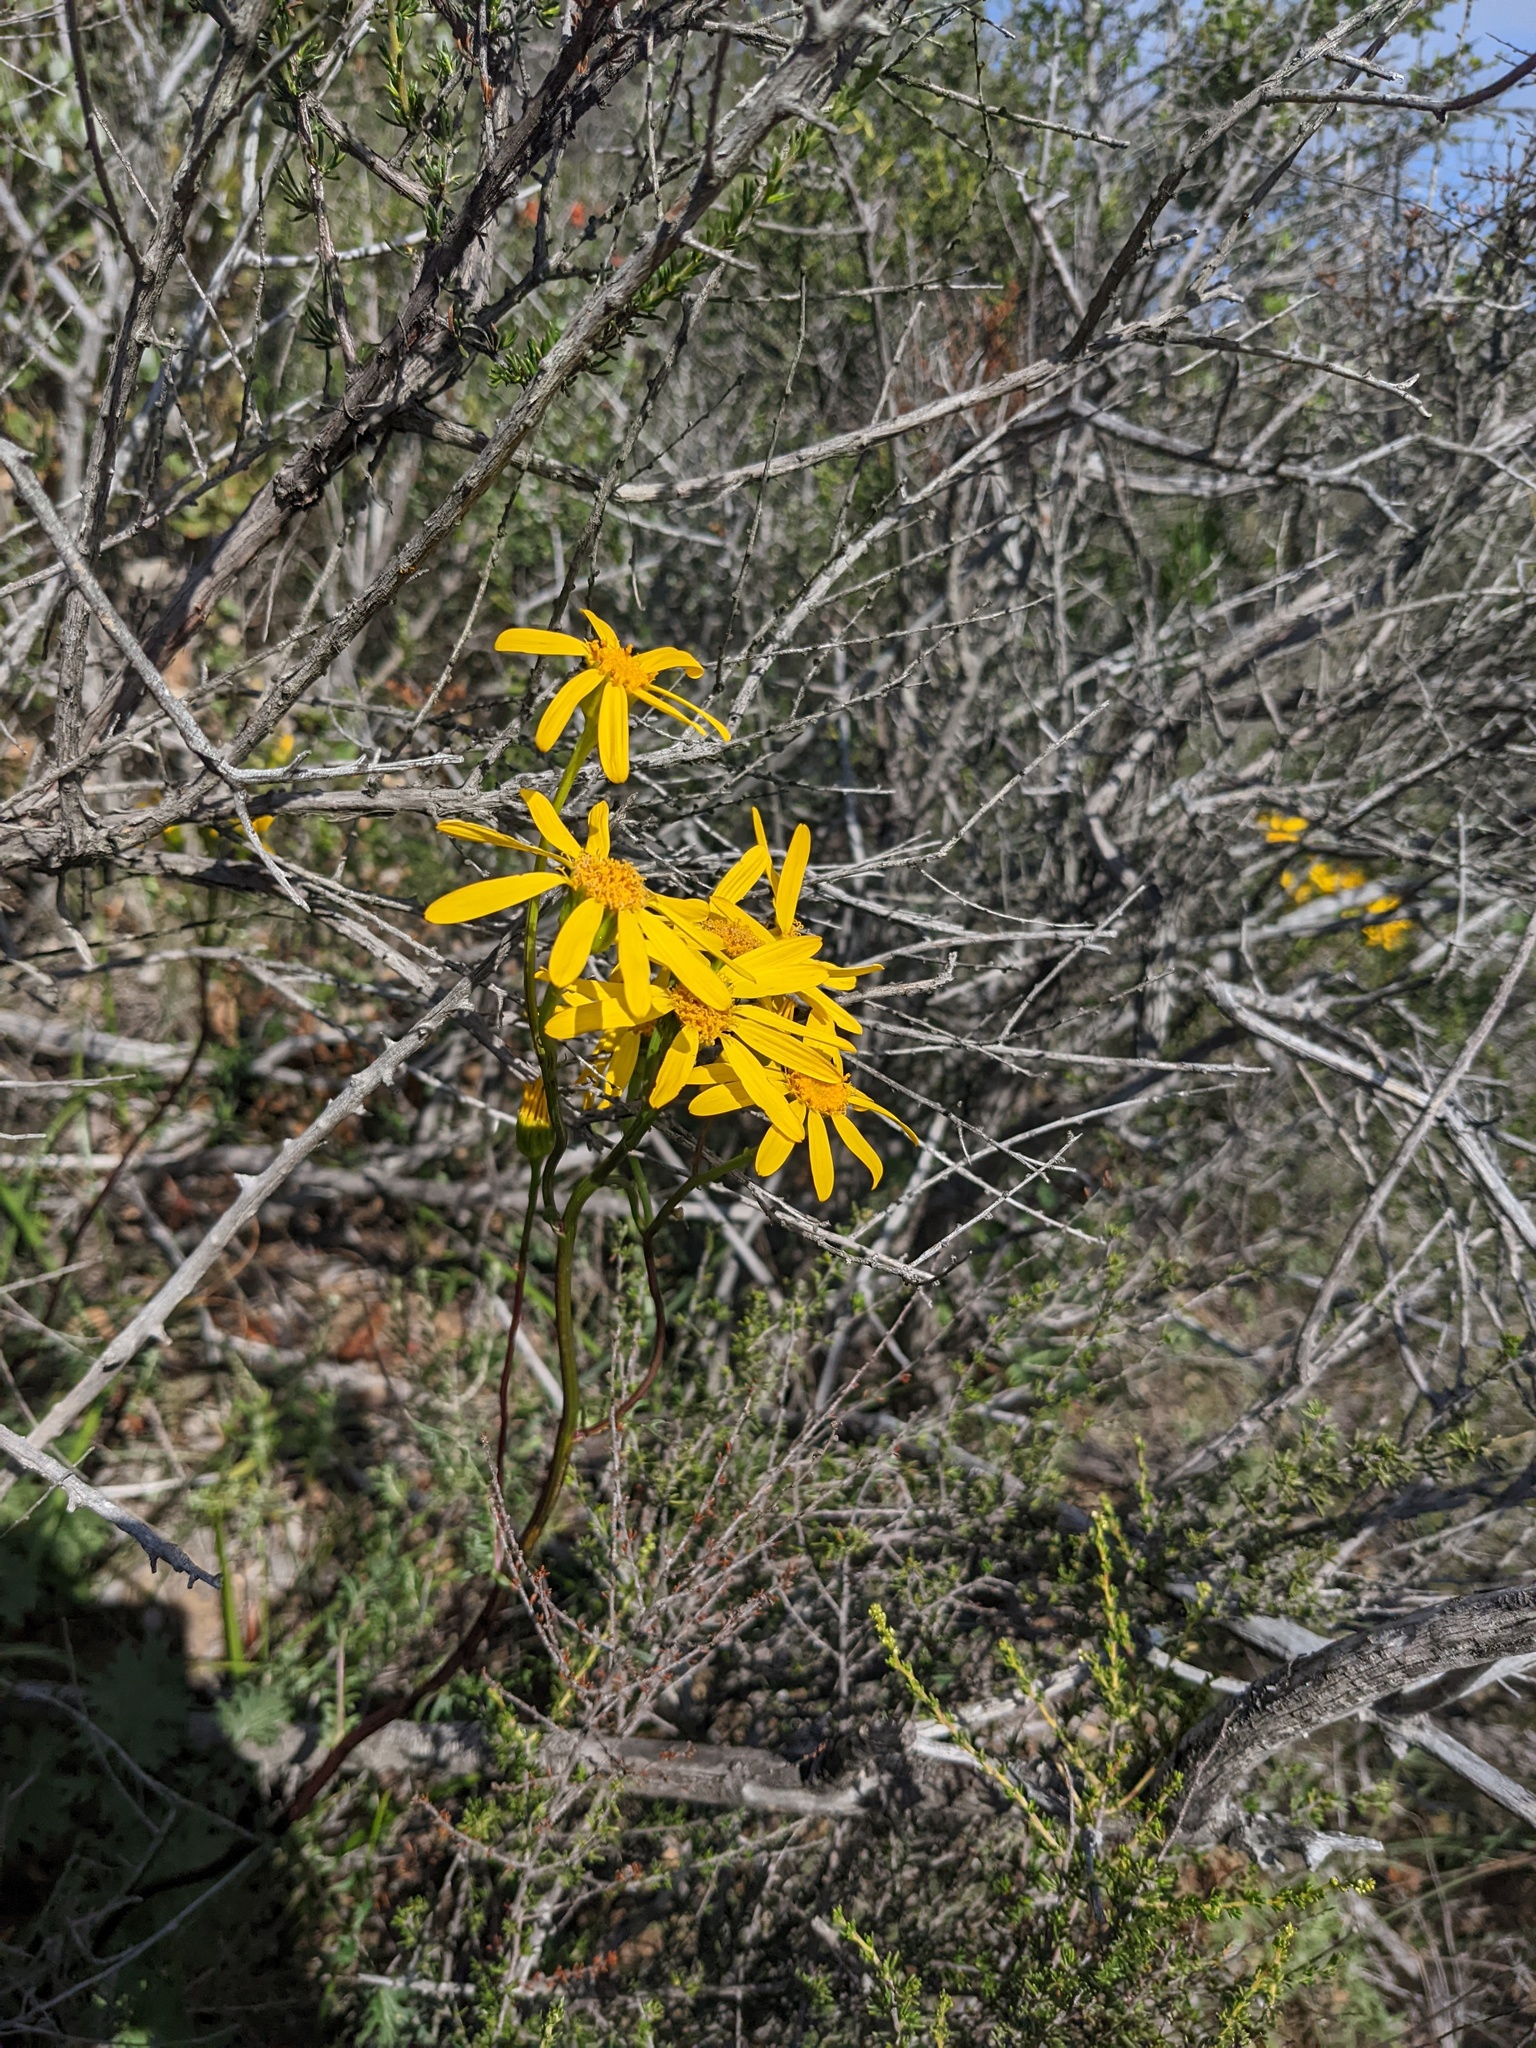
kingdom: Plantae
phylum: Tracheophyta
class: Magnoliopsida
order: Asterales
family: Asteraceae
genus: Packera
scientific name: Packera ganderi
